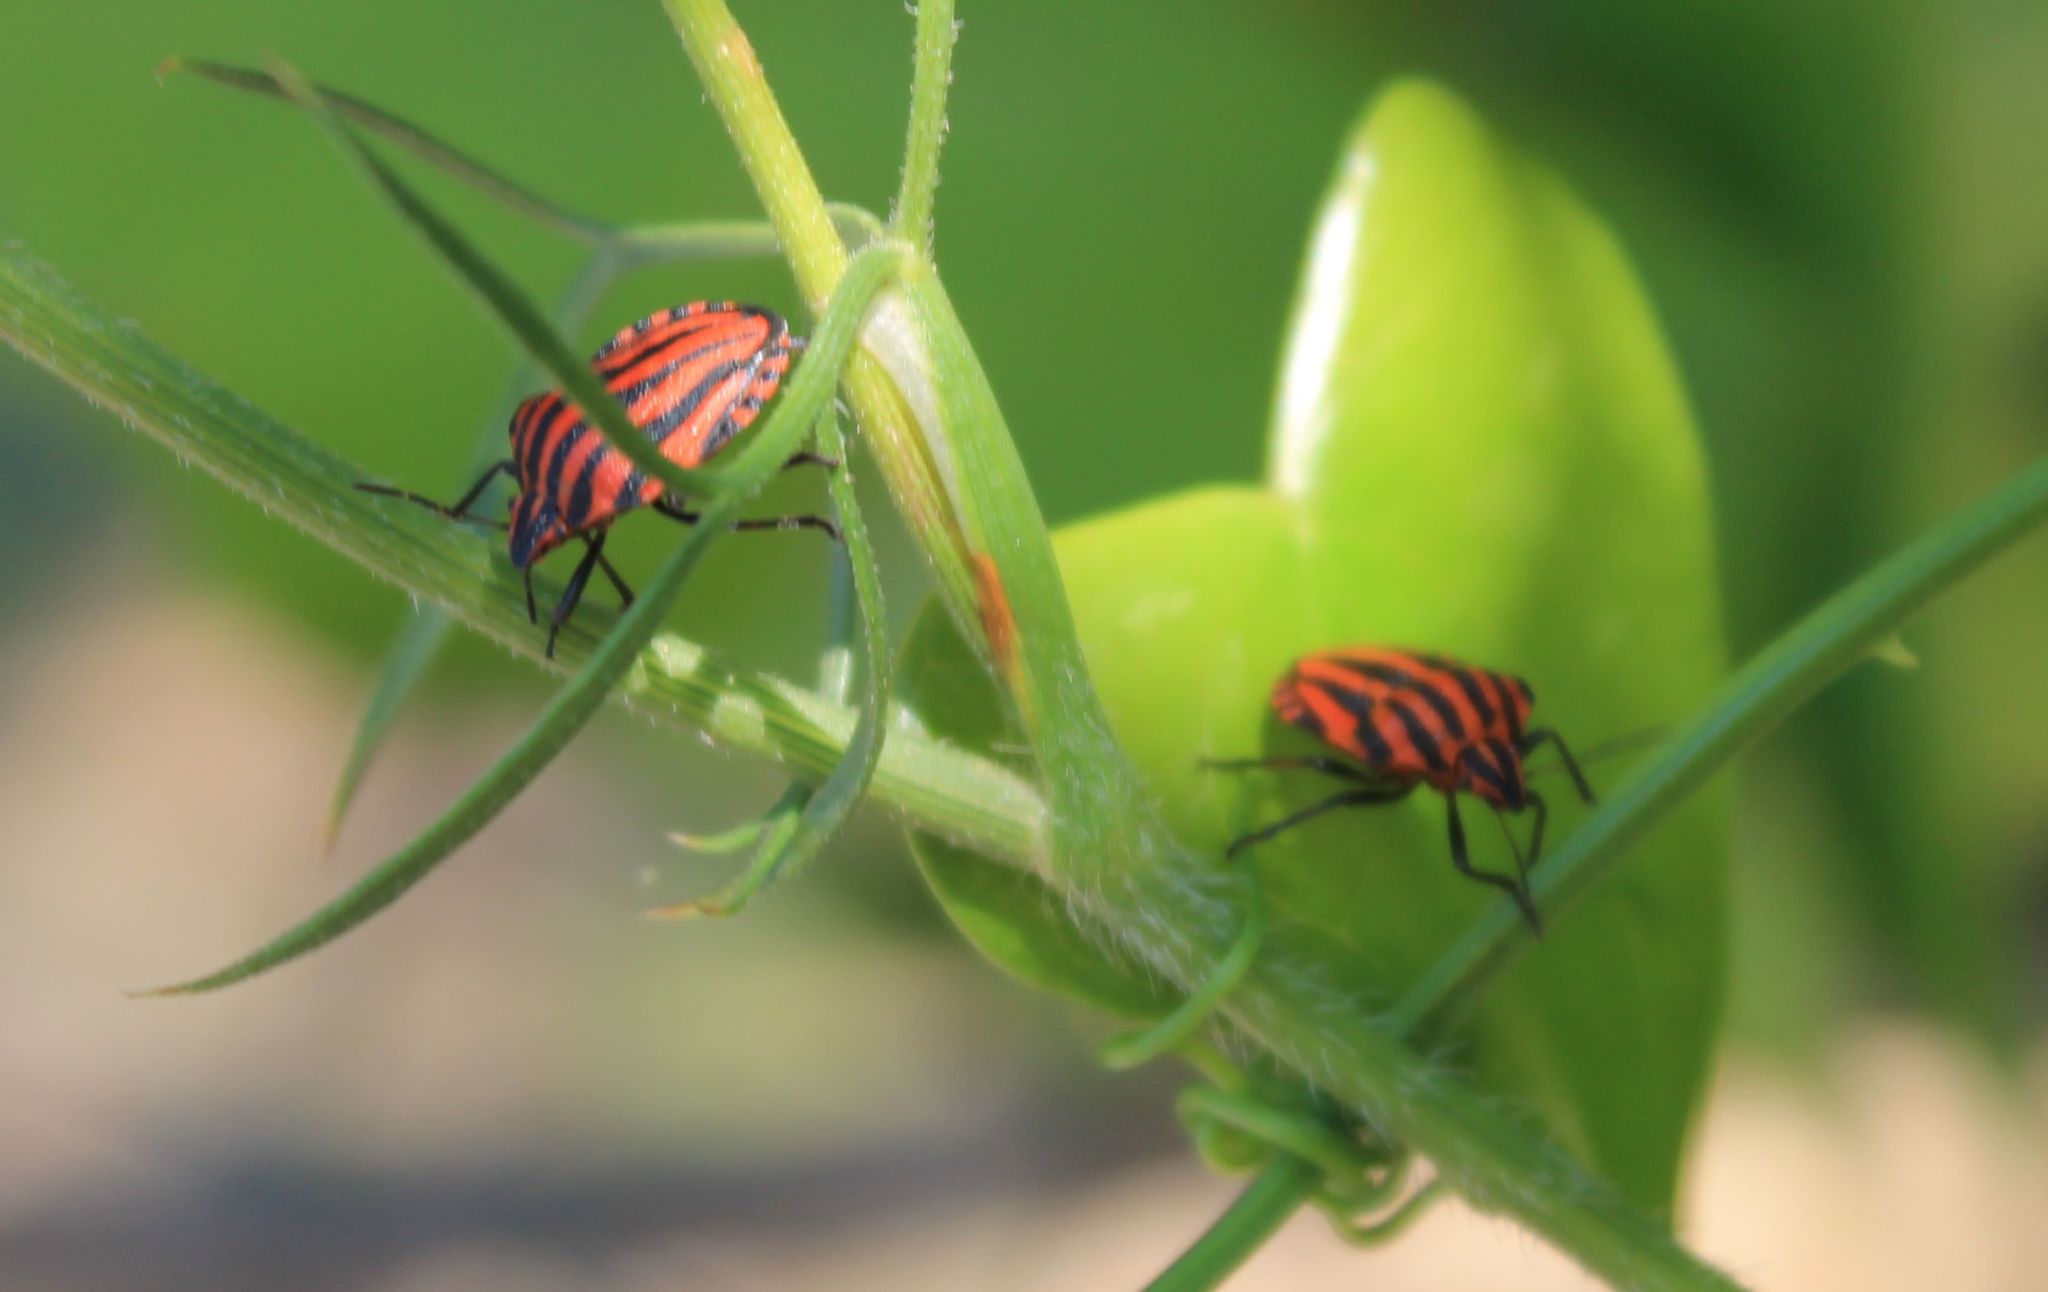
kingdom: Animalia
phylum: Arthropoda
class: Insecta
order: Hemiptera
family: Pentatomidae
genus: Graphosoma
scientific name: Graphosoma italicum
